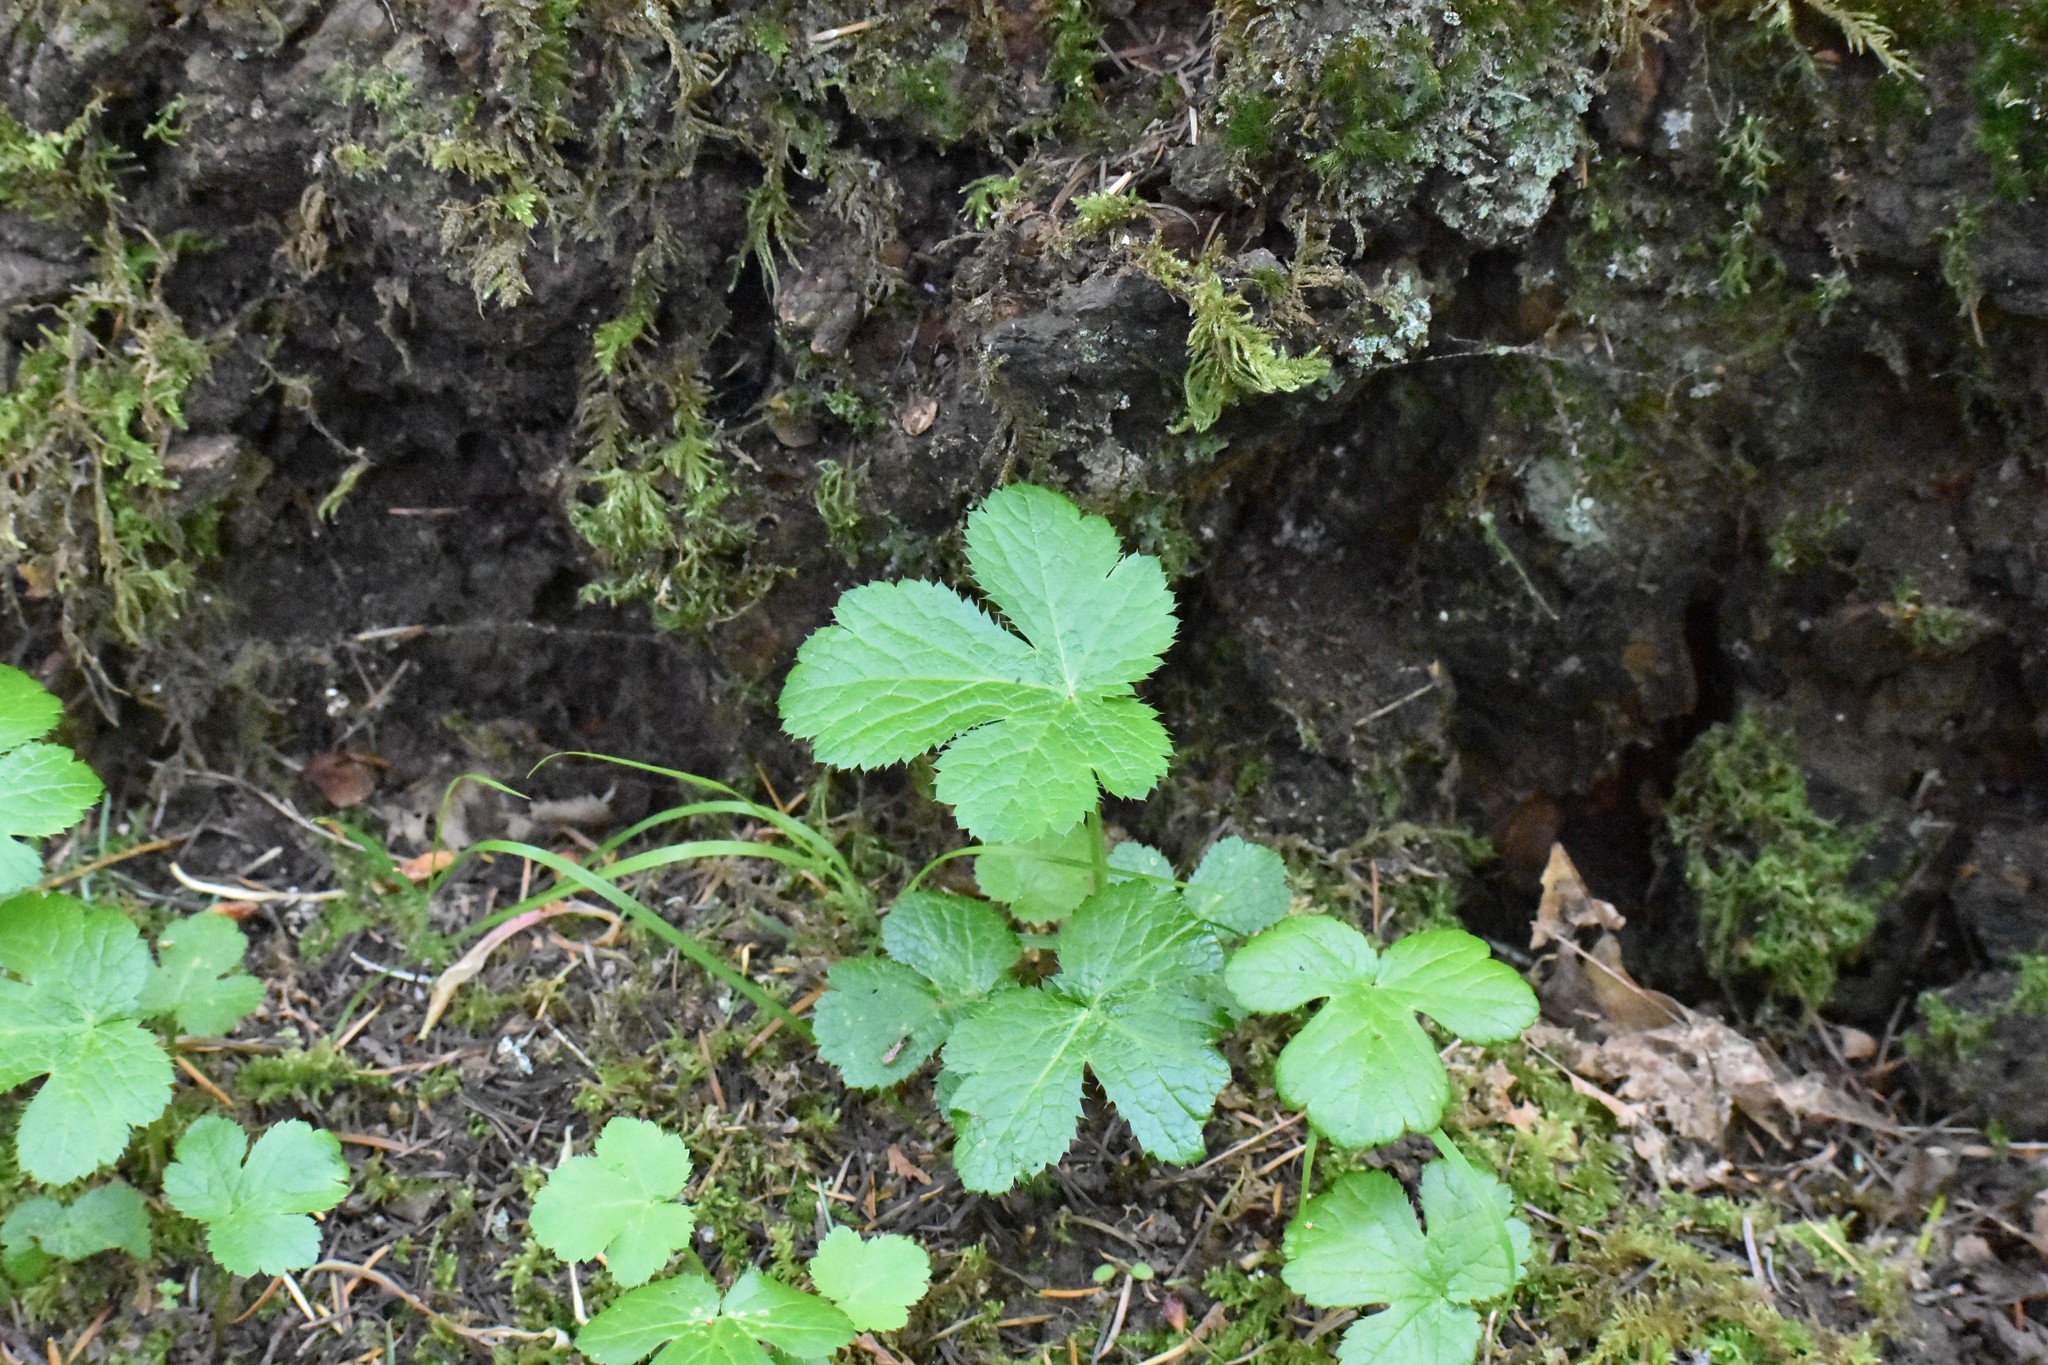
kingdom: Plantae
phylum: Tracheophyta
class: Magnoliopsida
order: Apiales
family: Apiaceae
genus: Sanicula
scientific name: Sanicula crassicaulis
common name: Western snakeroot
